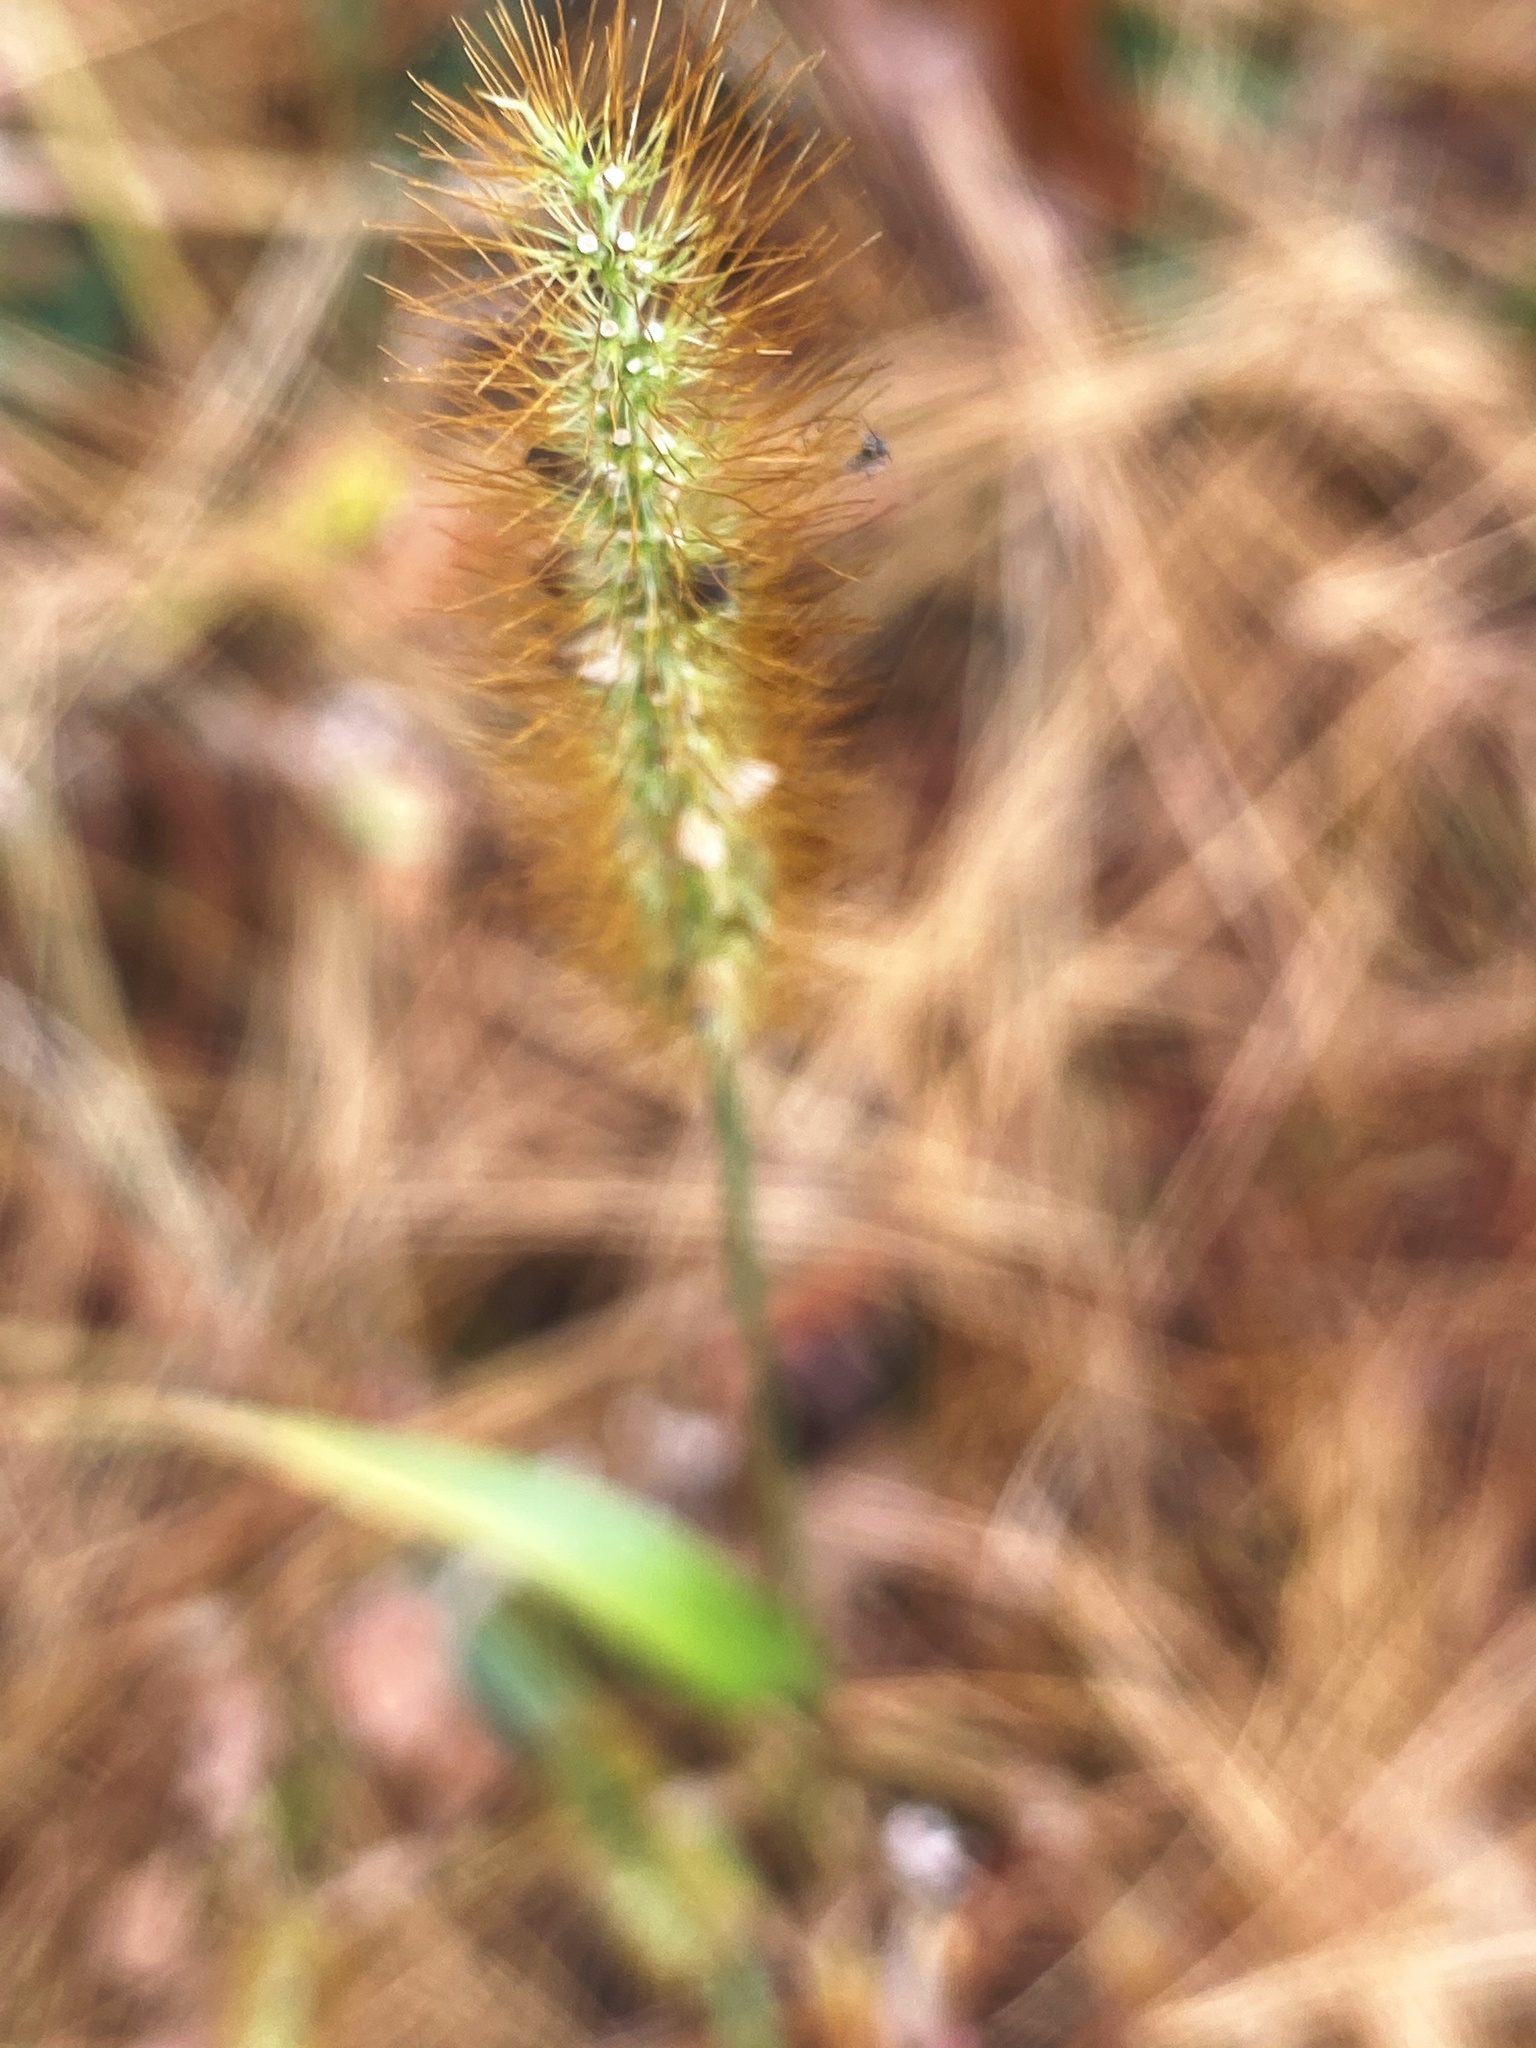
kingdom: Plantae
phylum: Tracheophyta
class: Liliopsida
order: Poales
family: Poaceae
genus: Setaria
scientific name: Setaria pumila
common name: Yellow bristle-grass
